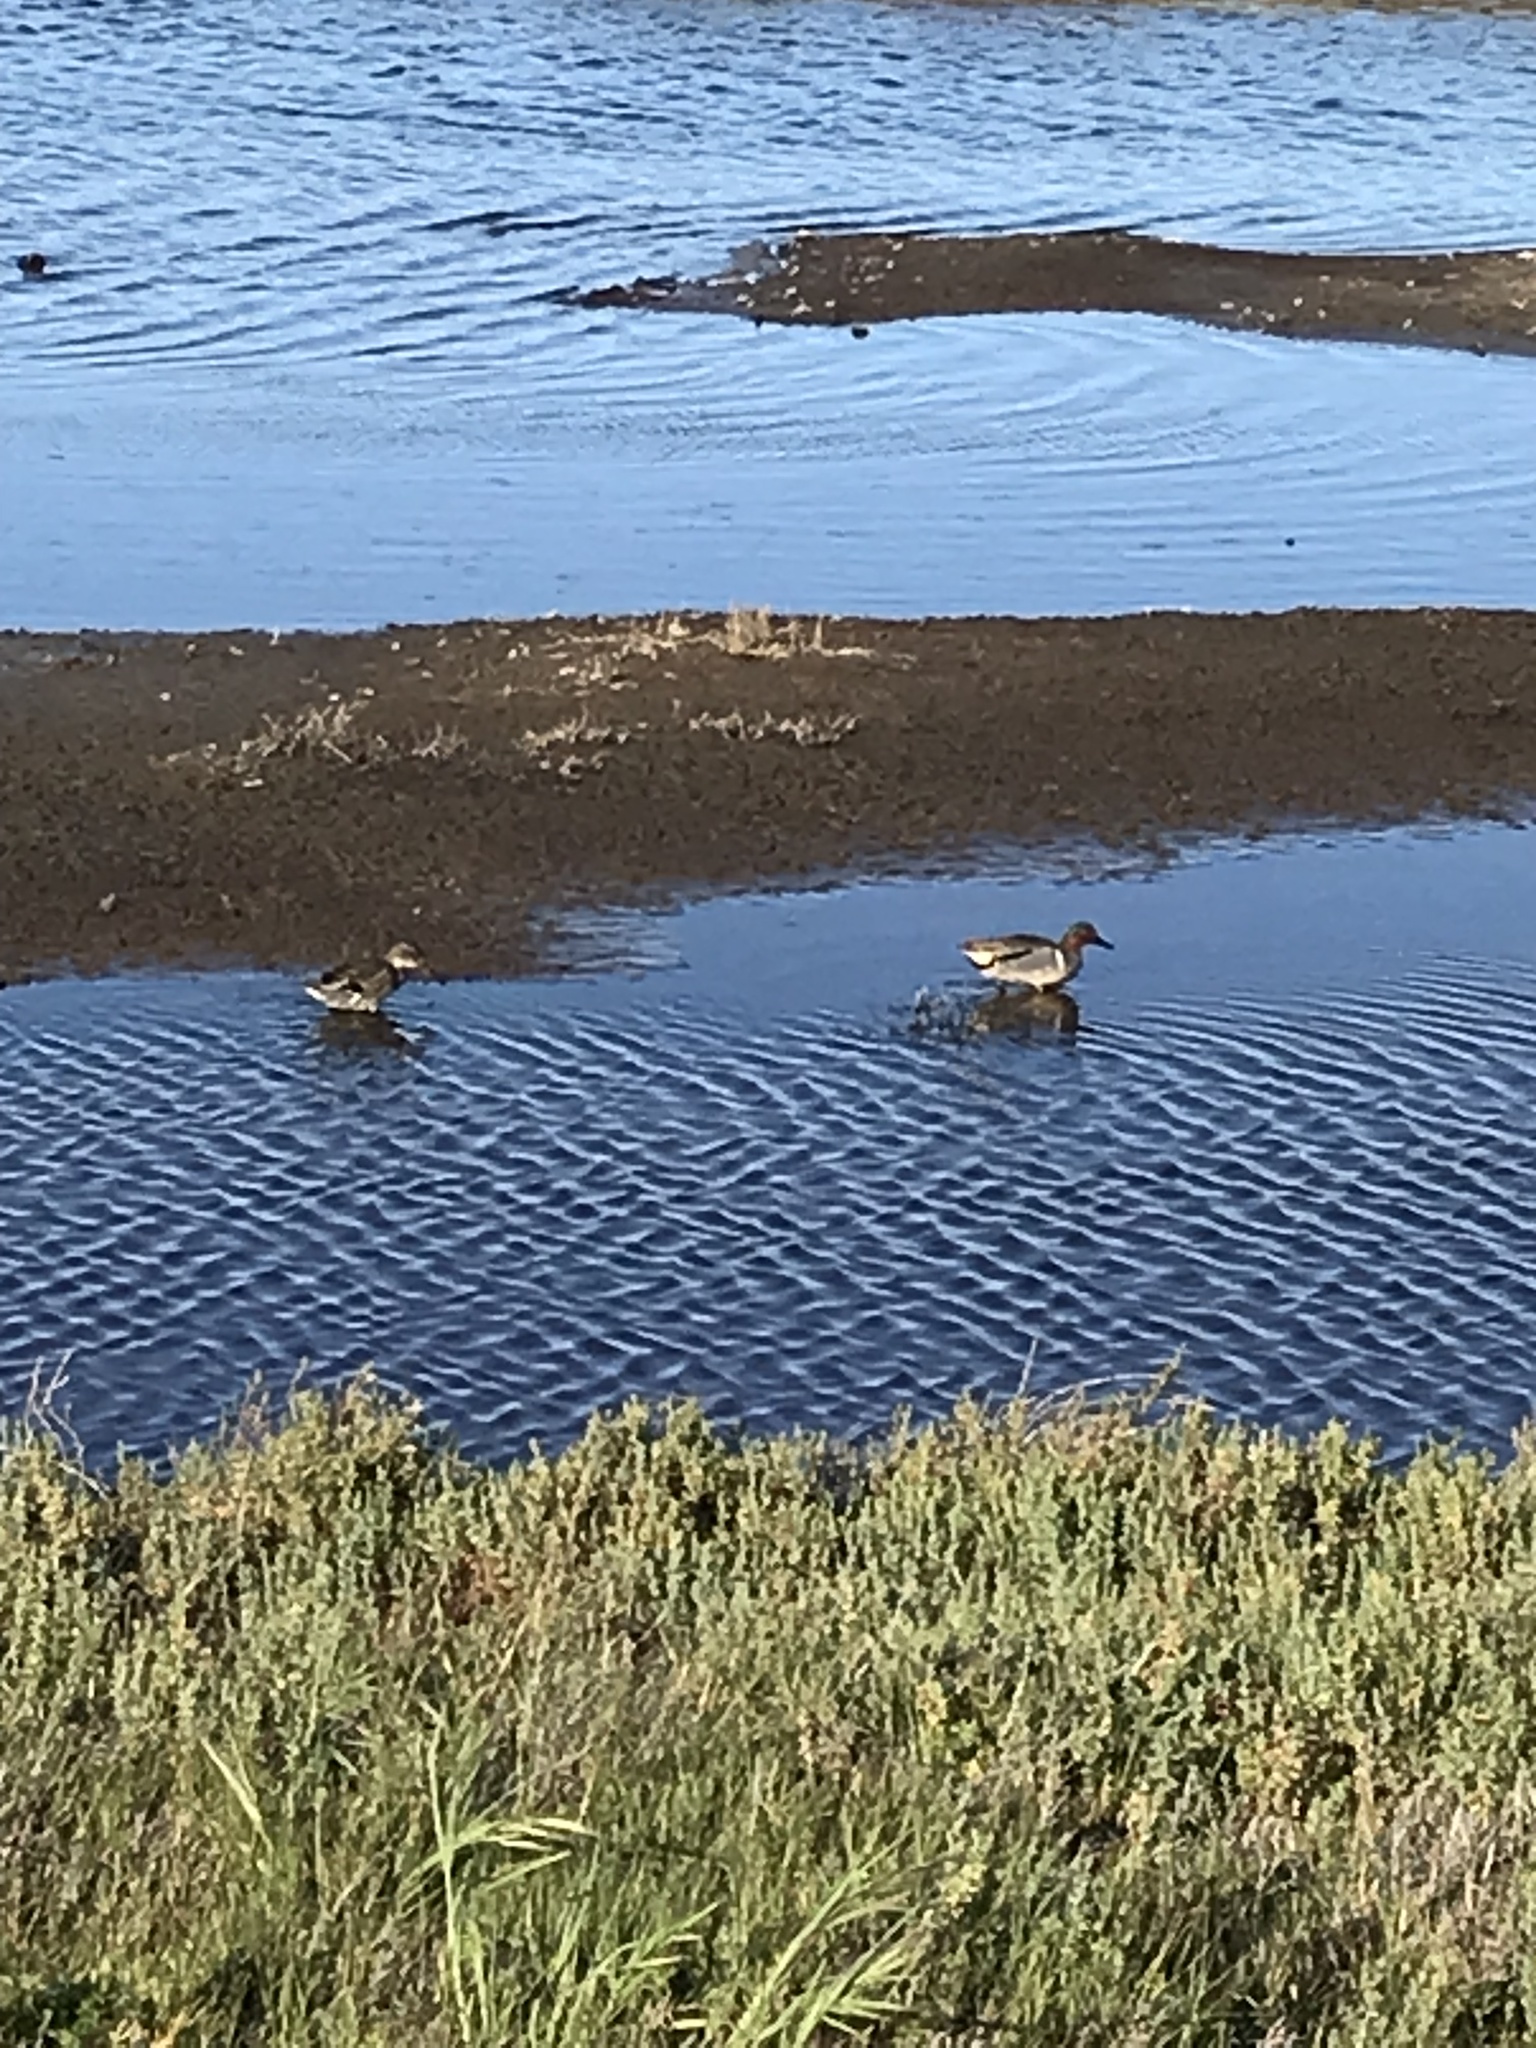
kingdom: Animalia
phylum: Chordata
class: Aves
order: Anseriformes
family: Anatidae
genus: Anas
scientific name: Anas crecca
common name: Eurasian teal
